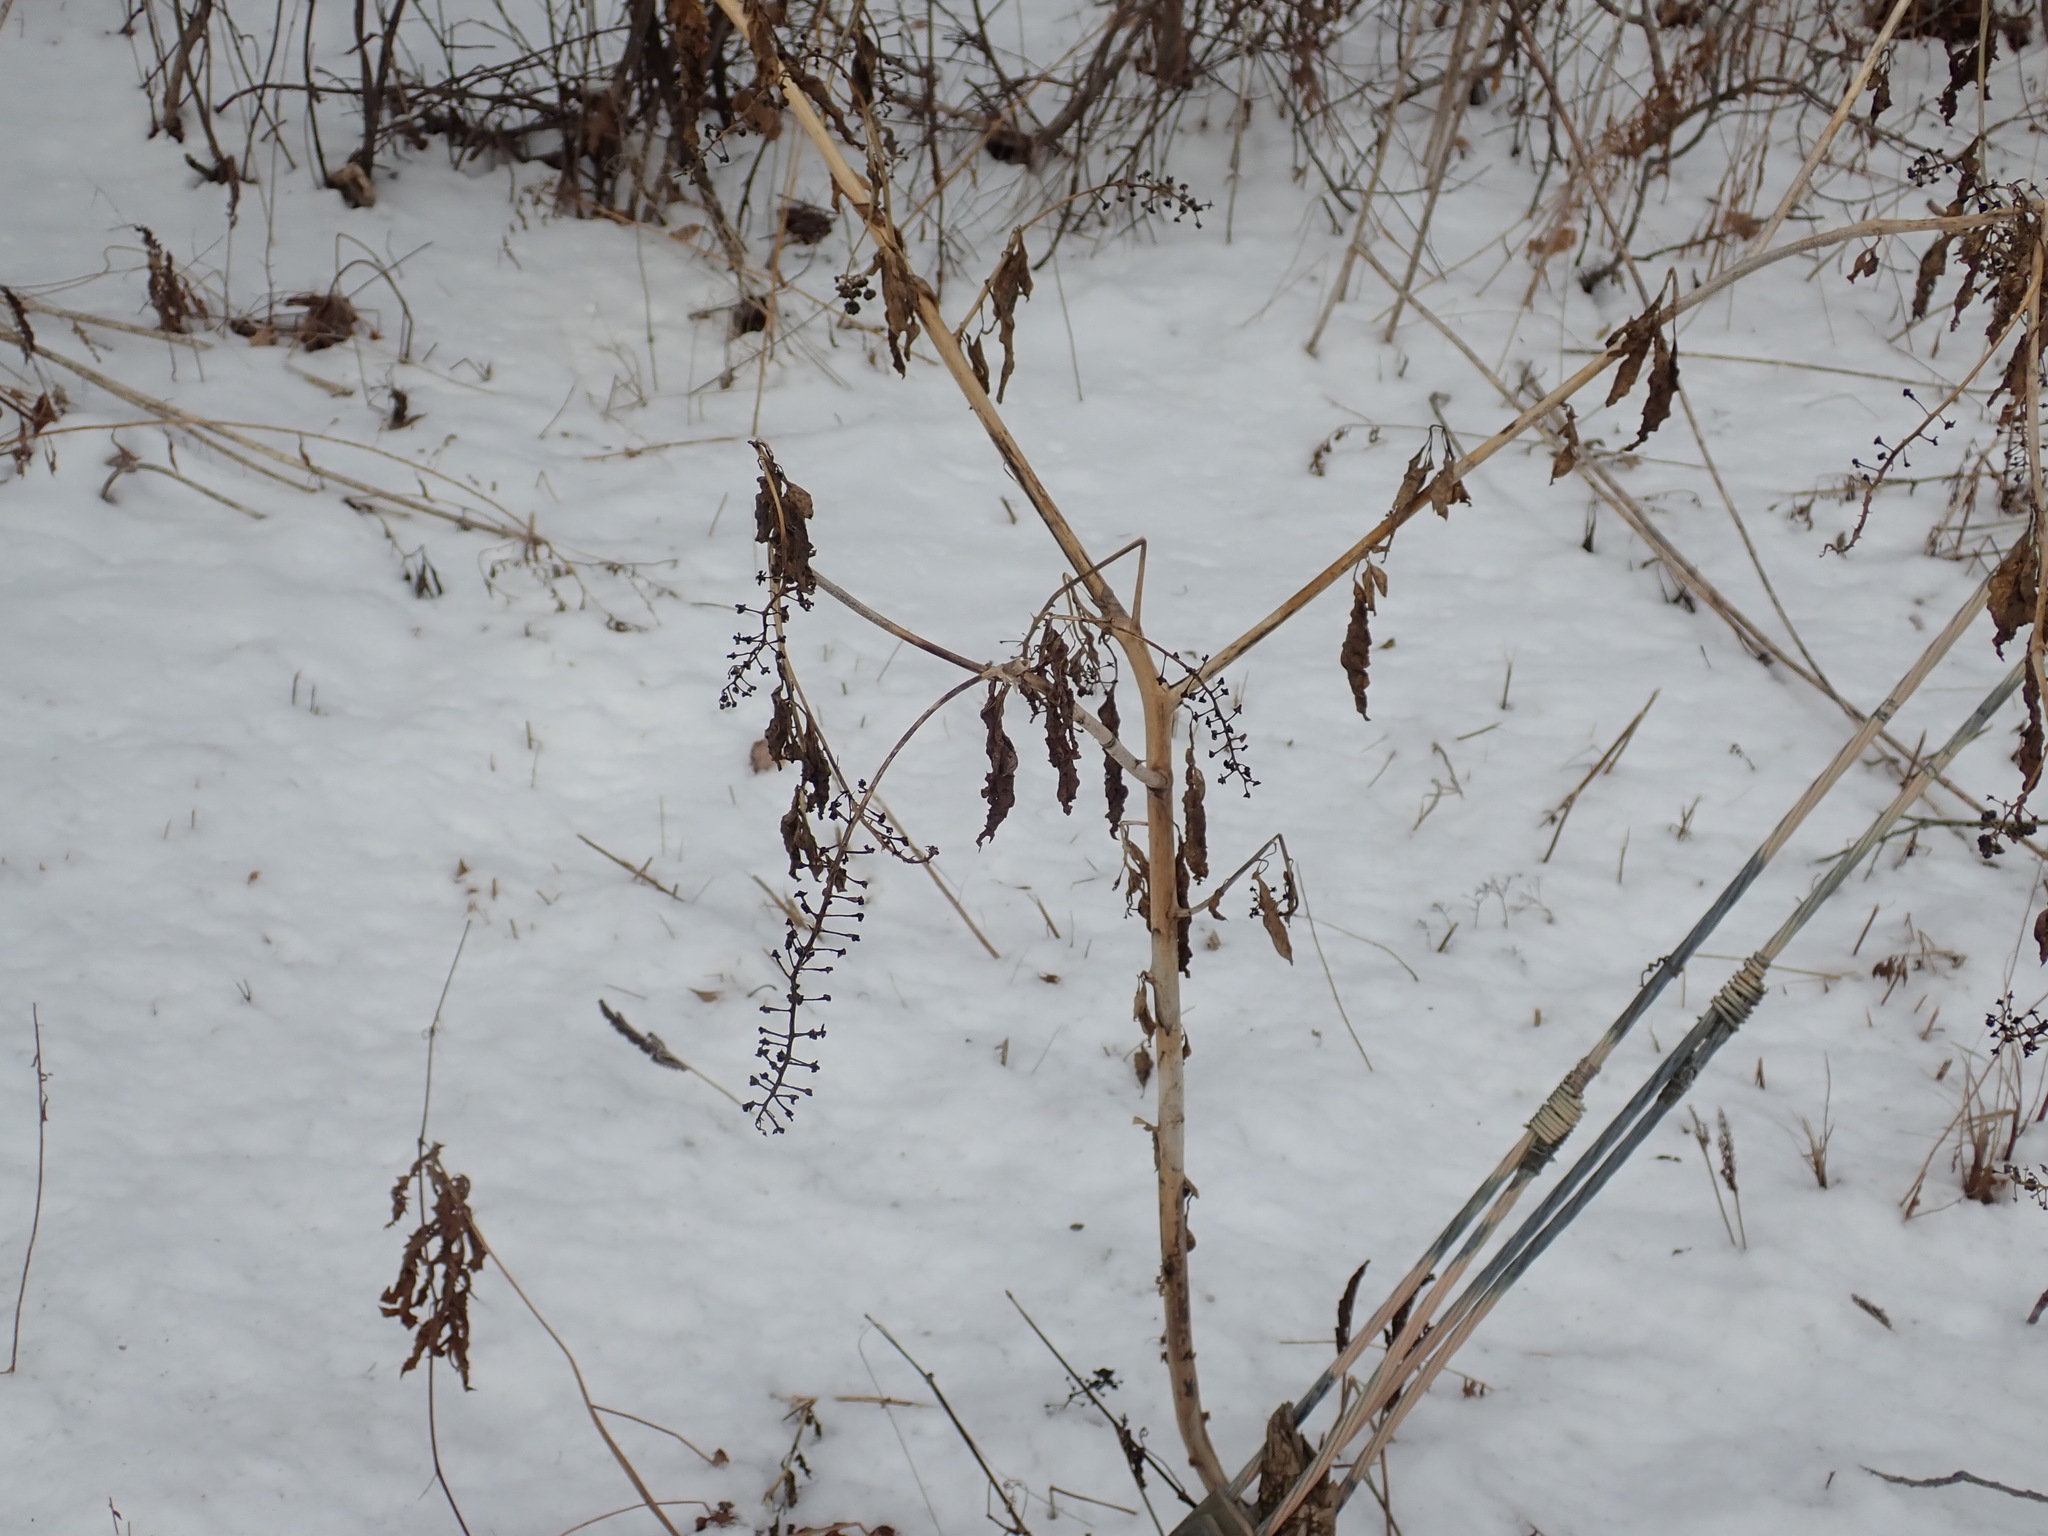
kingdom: Plantae
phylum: Tracheophyta
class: Magnoliopsida
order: Caryophyllales
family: Phytolaccaceae
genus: Phytolacca
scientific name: Phytolacca americana
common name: American pokeweed
